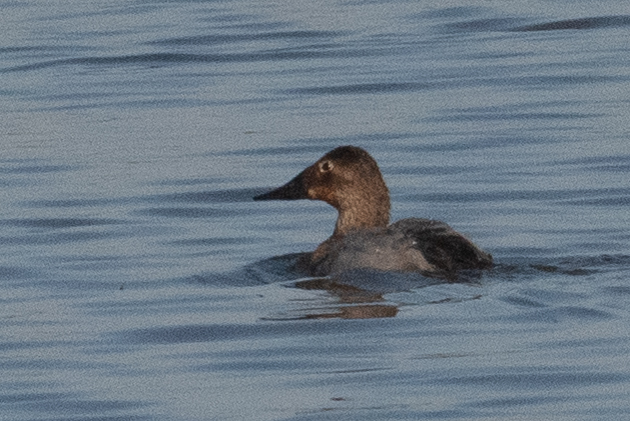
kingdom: Animalia
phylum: Chordata
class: Aves
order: Anseriformes
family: Anatidae
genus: Aythya
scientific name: Aythya valisineria
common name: Canvasback
